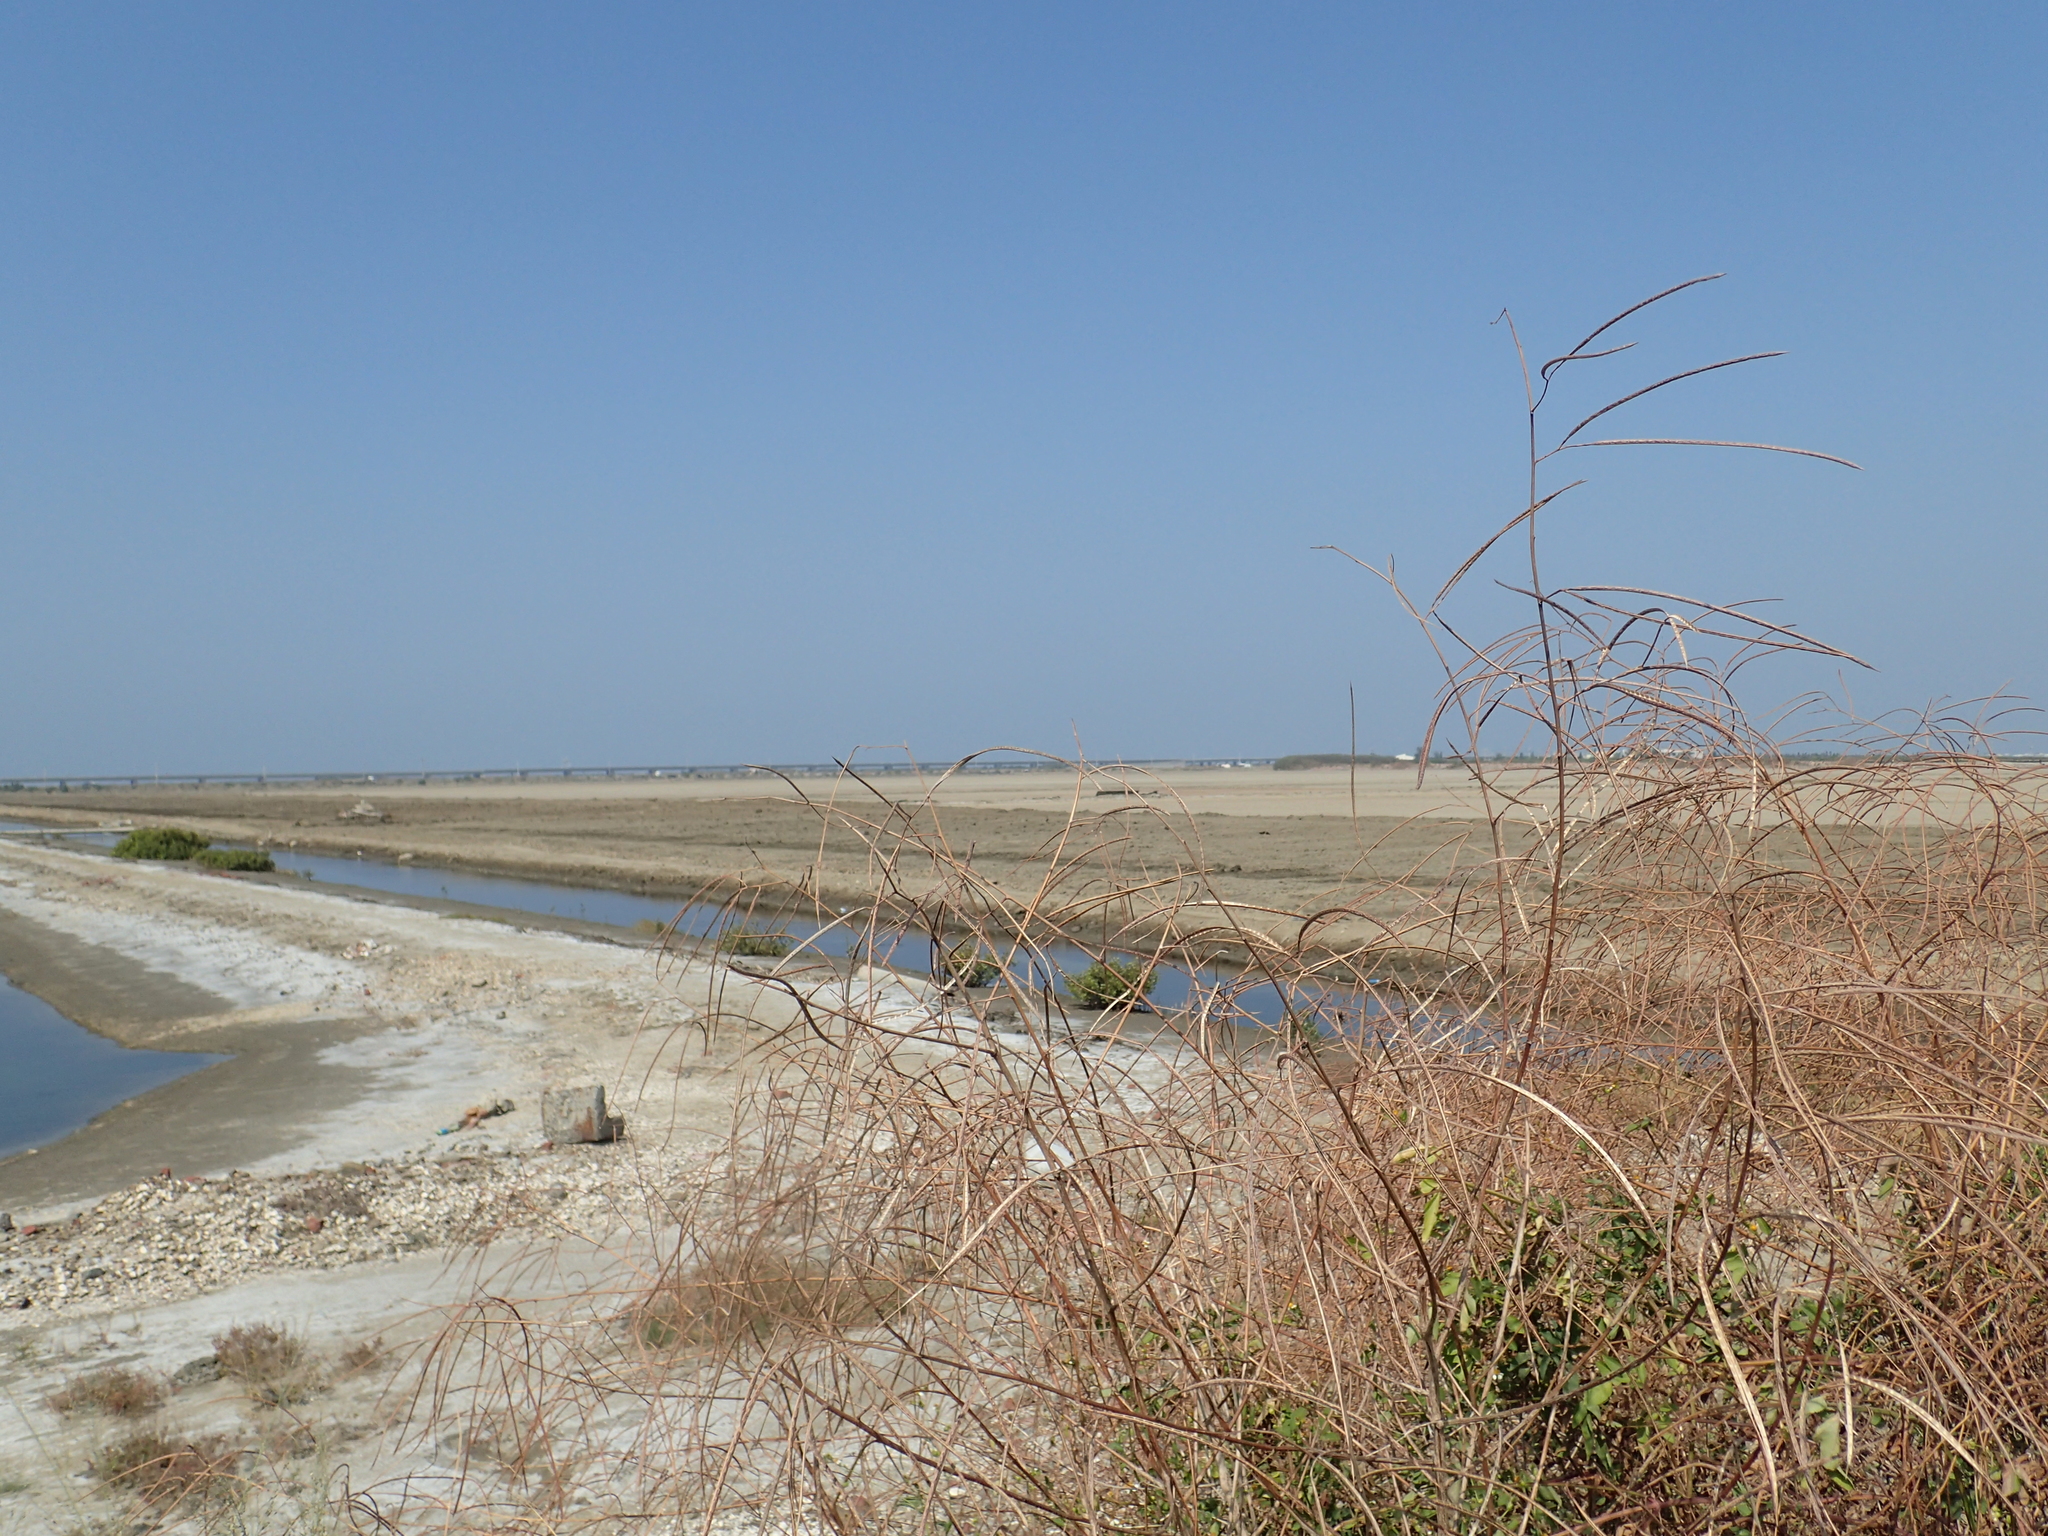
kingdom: Plantae
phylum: Tracheophyta
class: Magnoliopsida
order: Fabales
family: Fabaceae
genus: Sesbania
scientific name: Sesbania cannabina
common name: Canicha
